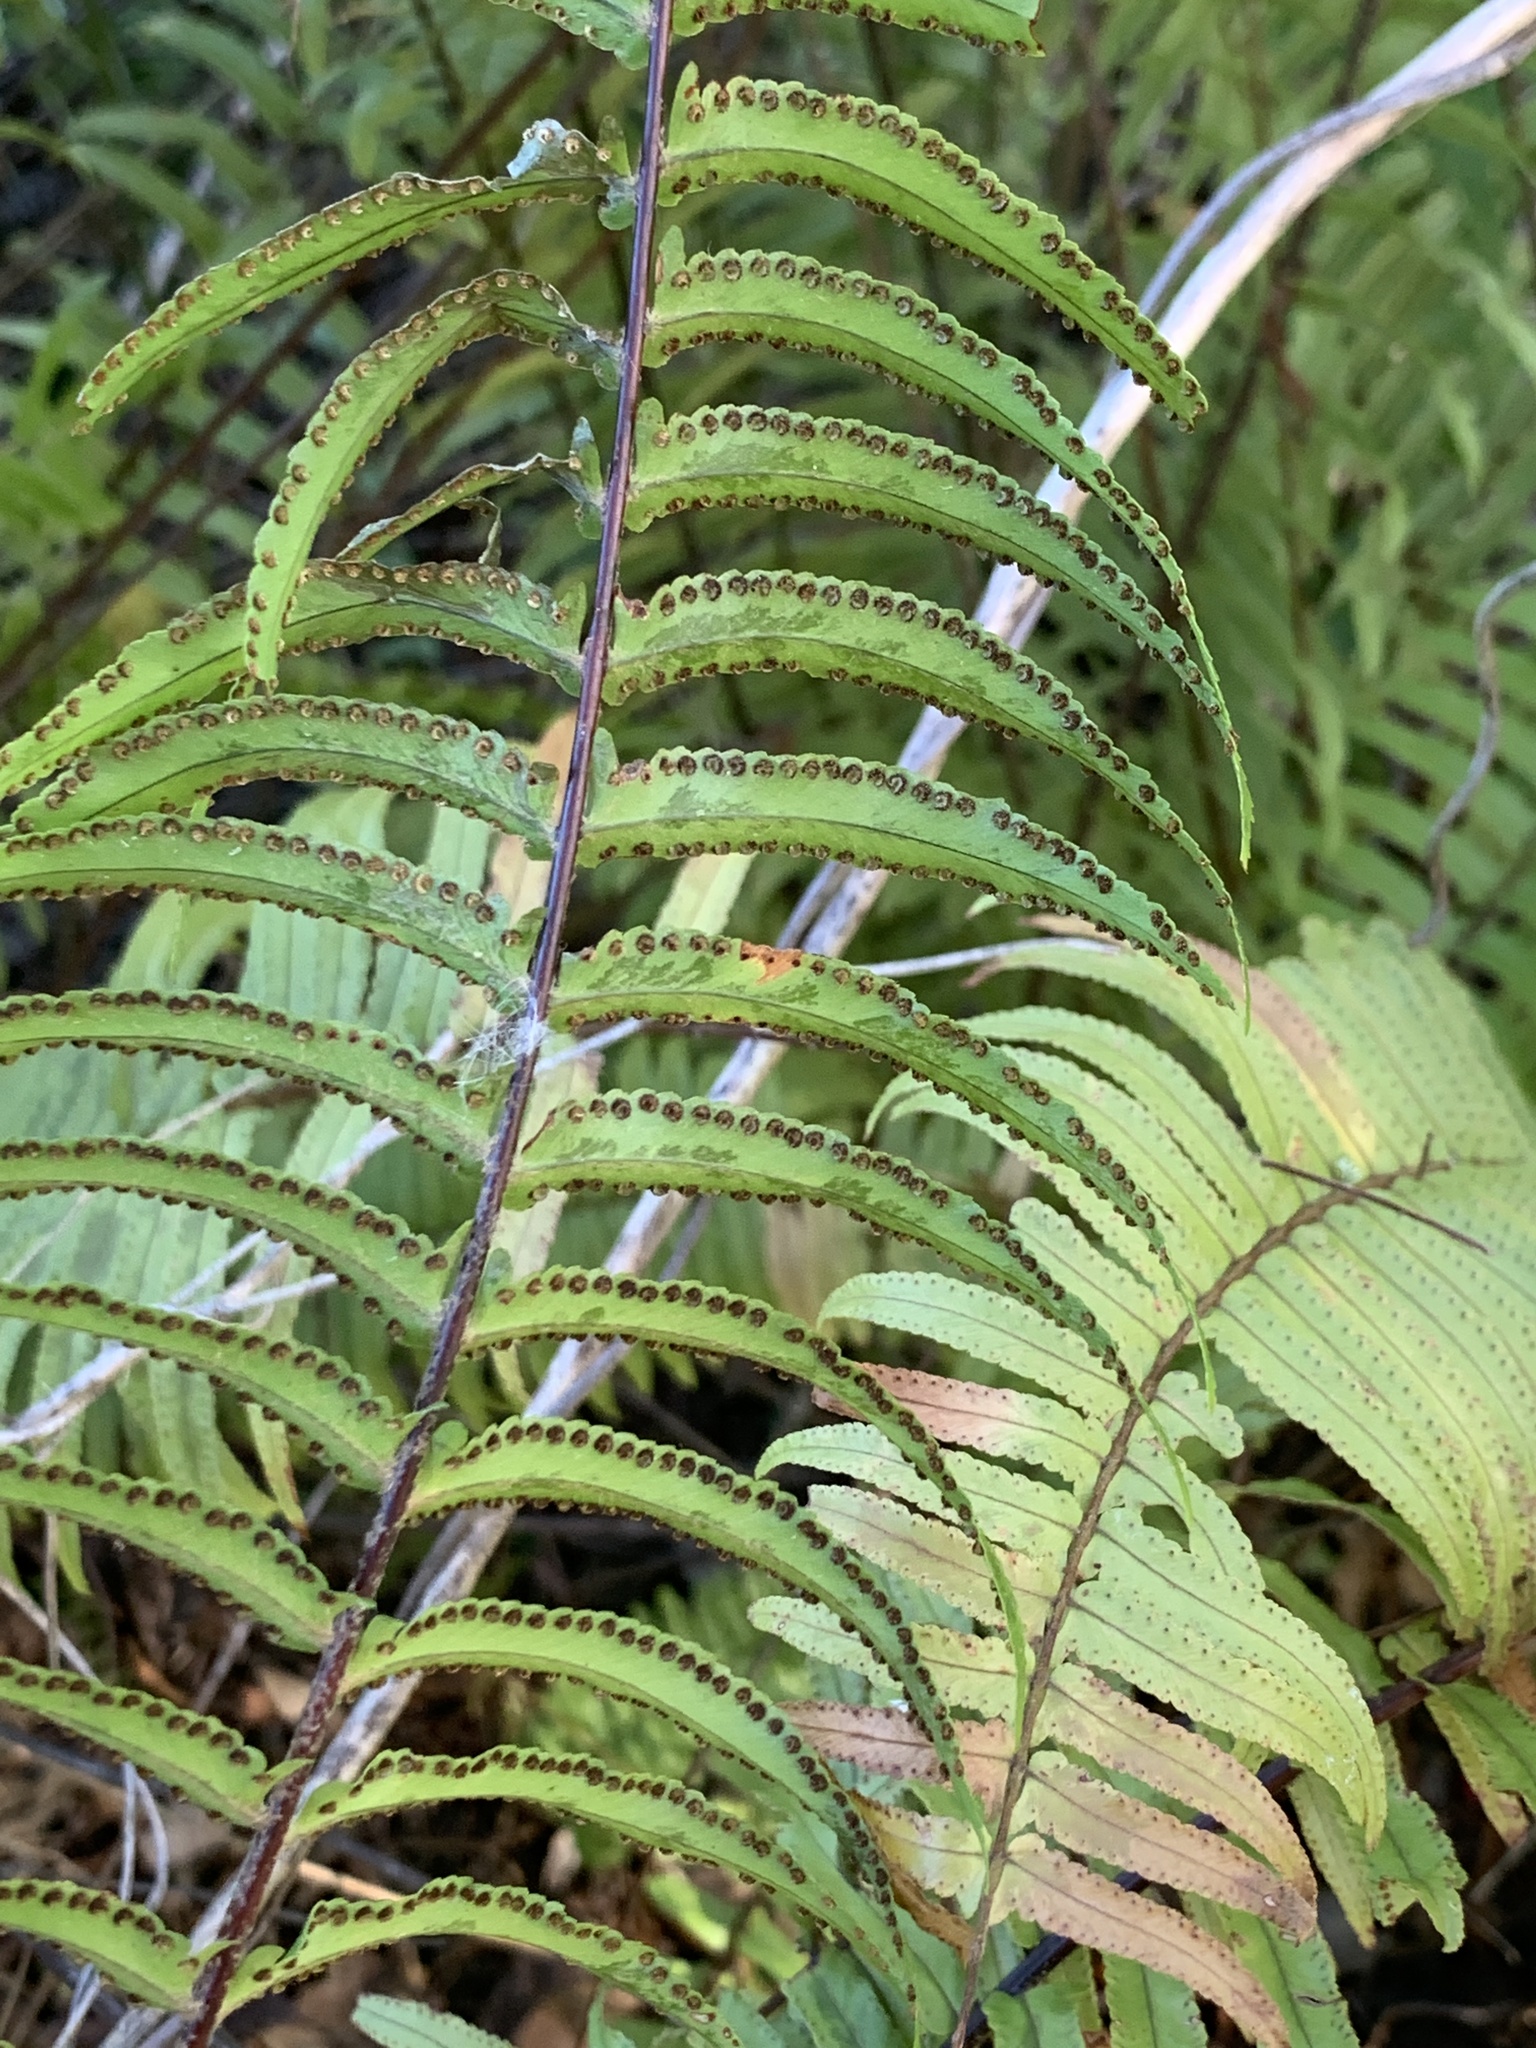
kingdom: Plantae
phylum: Tracheophyta
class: Polypodiopsida
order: Polypodiales
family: Nephrolepidaceae
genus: Nephrolepis
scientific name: Nephrolepis brownii
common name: Asian swordfern
